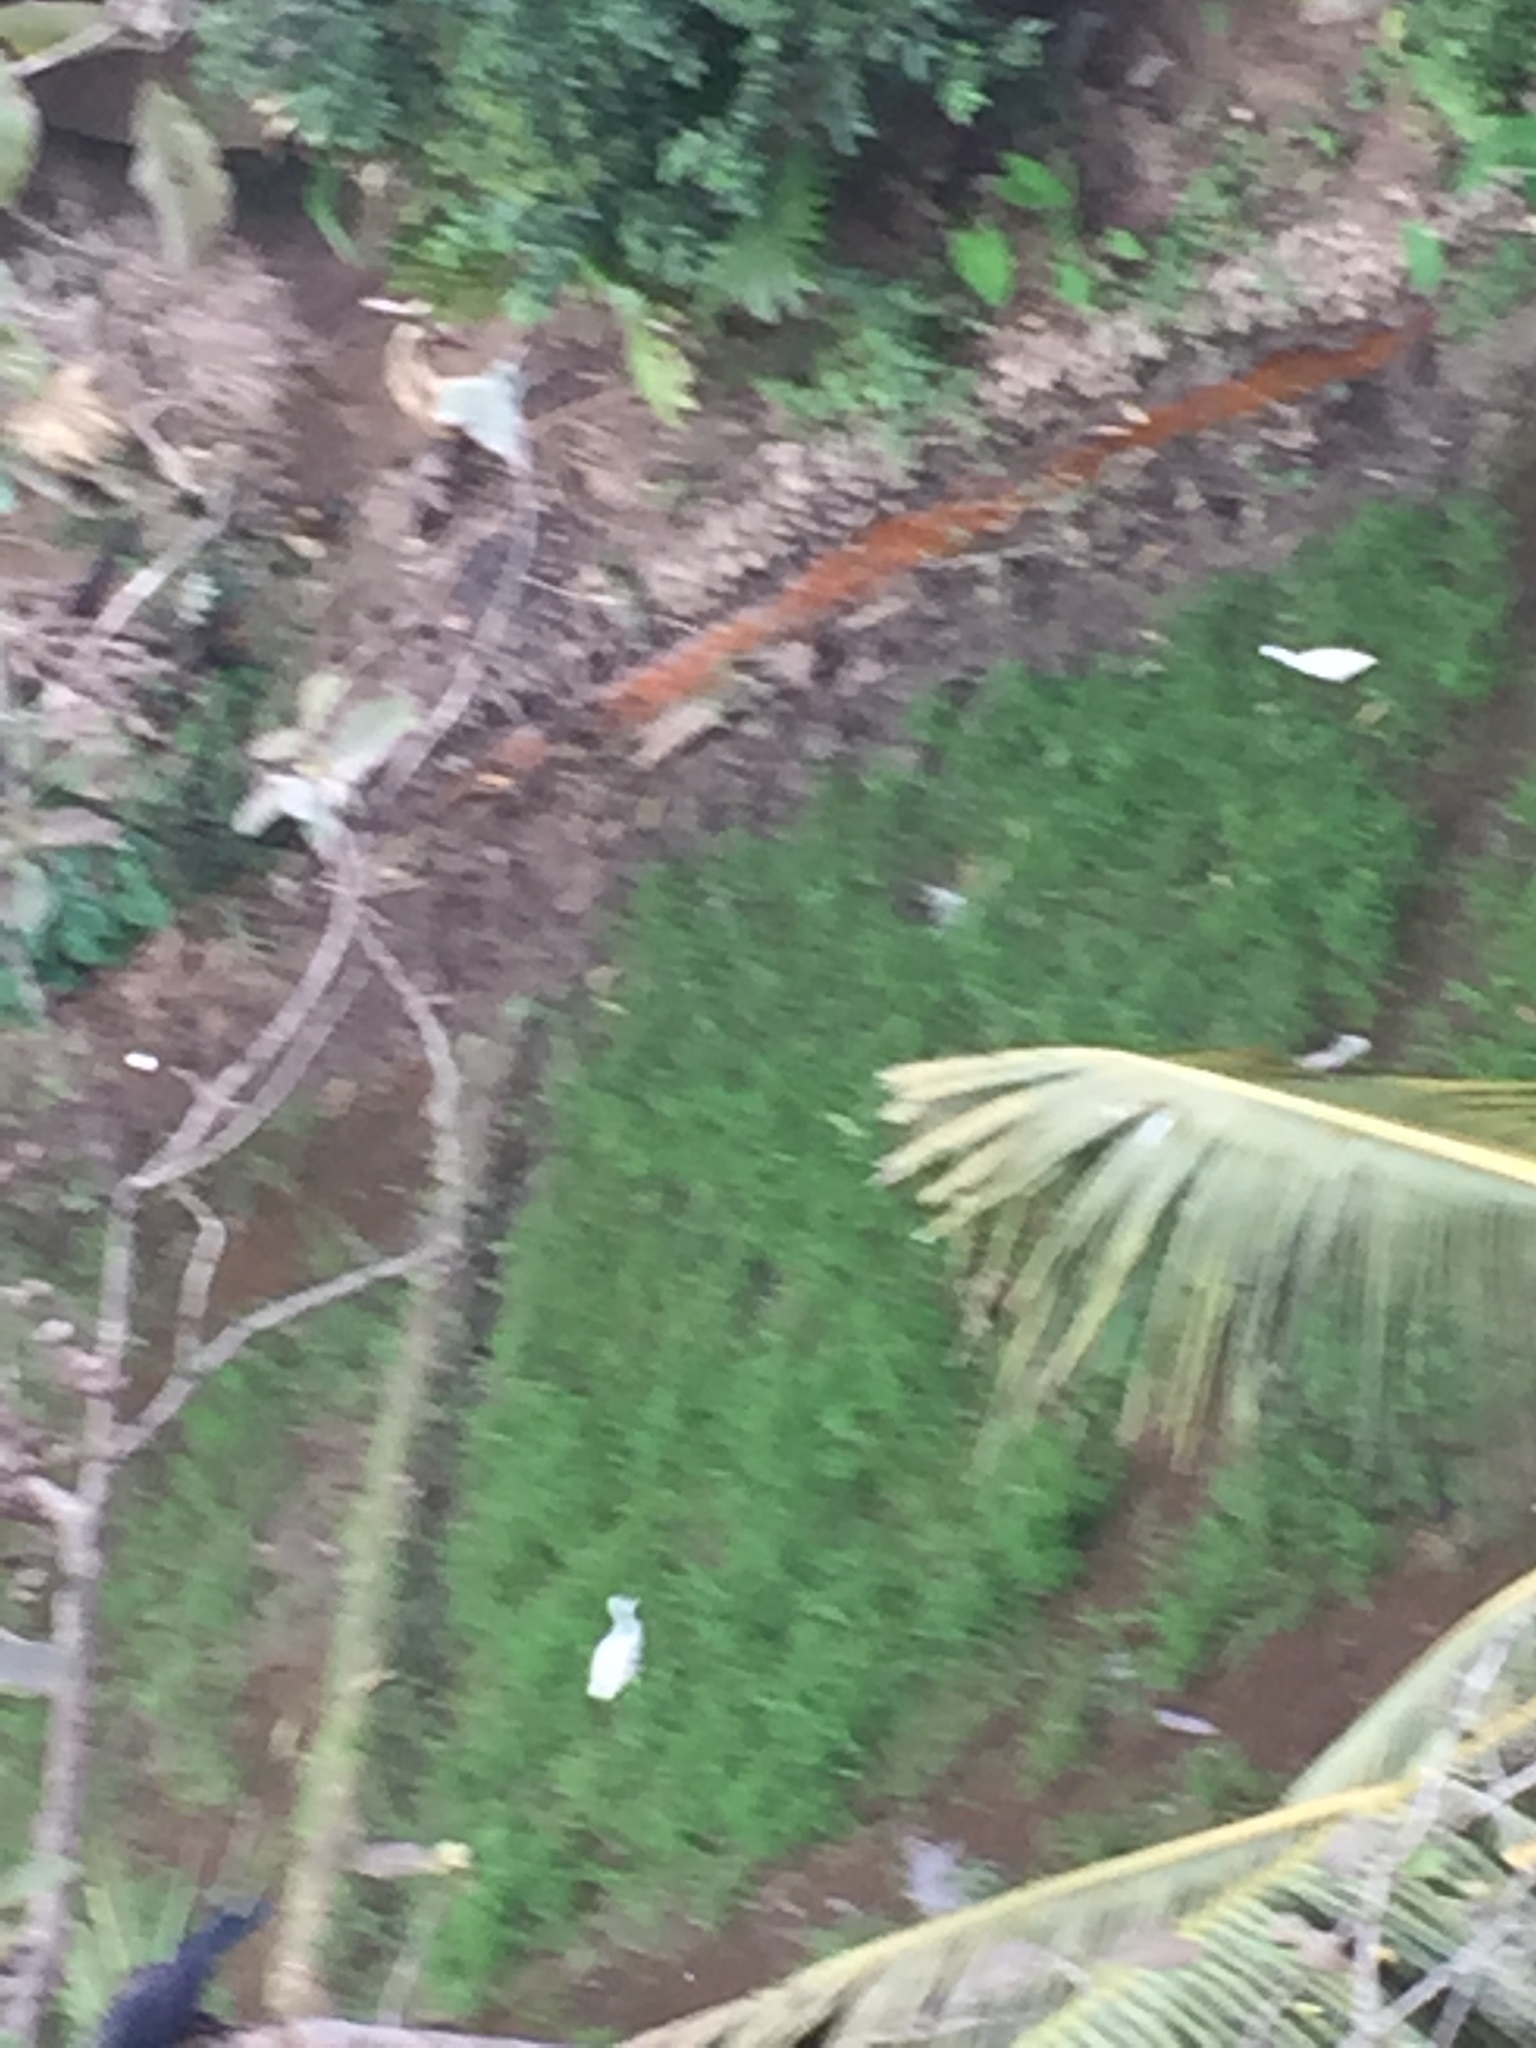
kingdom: Animalia
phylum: Chordata
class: Aves
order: Pelecaniformes
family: Ardeidae
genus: Egretta
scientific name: Egretta intermedia
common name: Intermediate egret
